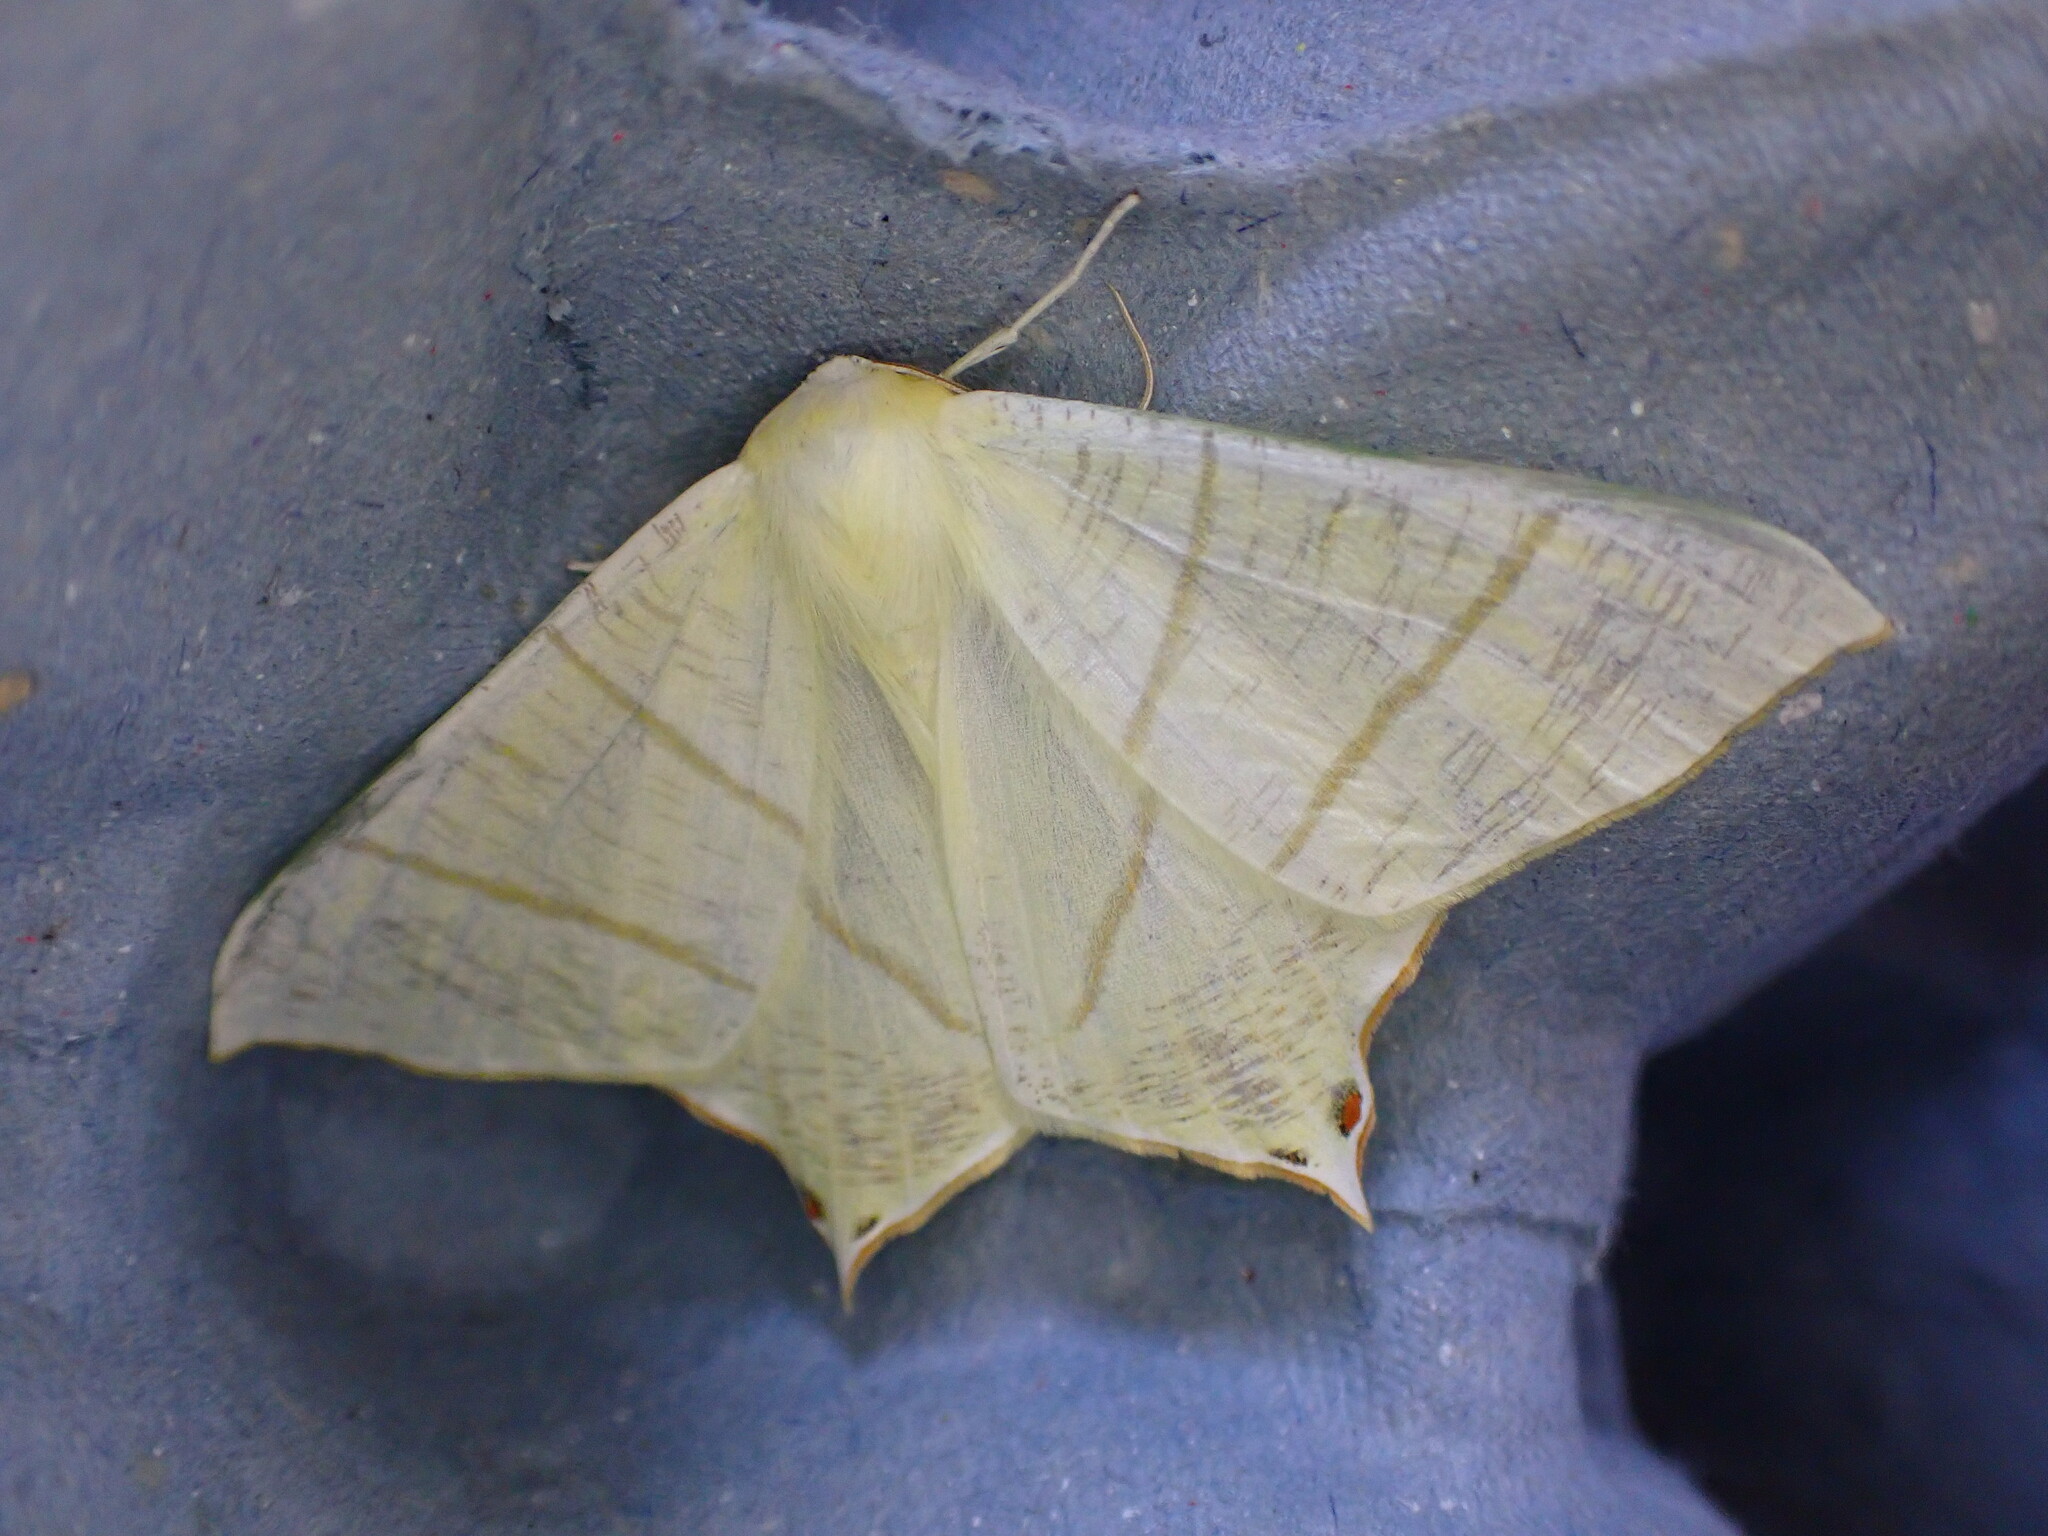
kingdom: Animalia
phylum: Arthropoda
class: Insecta
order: Lepidoptera
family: Geometridae
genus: Ourapteryx
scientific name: Ourapteryx sambucaria
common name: Swallow-tailed moth
